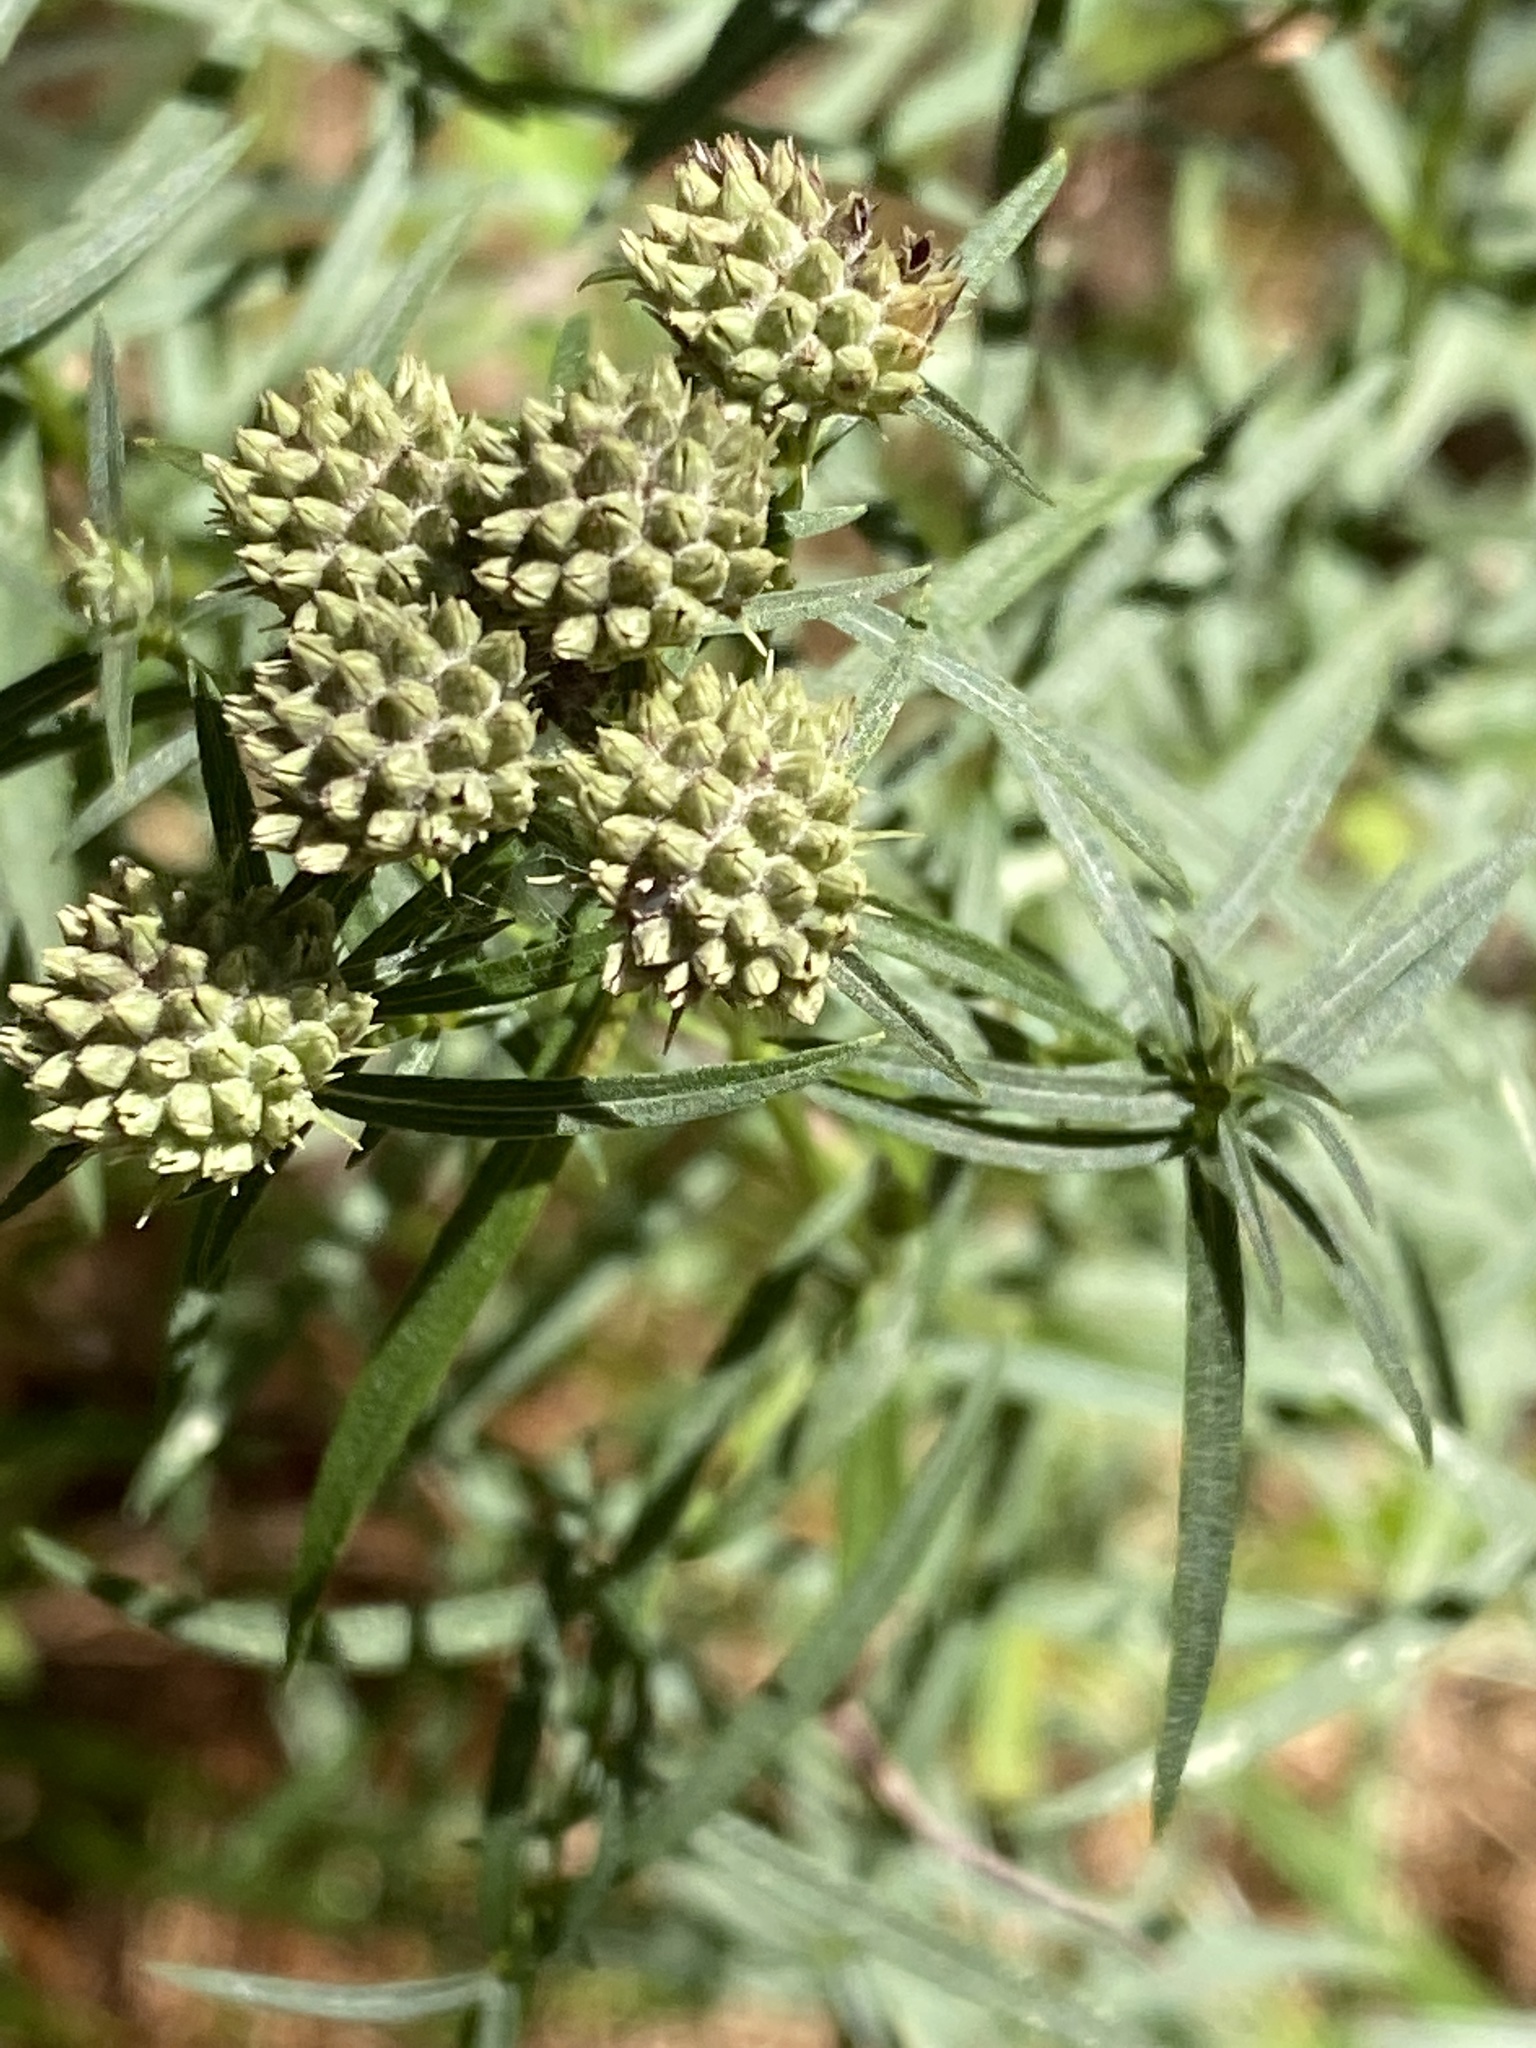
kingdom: Plantae
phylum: Tracheophyta
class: Magnoliopsida
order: Lamiales
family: Lamiaceae
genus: Pycnanthemum
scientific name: Pycnanthemum tenuifolium
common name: Narrow-leaf mountain-mint
